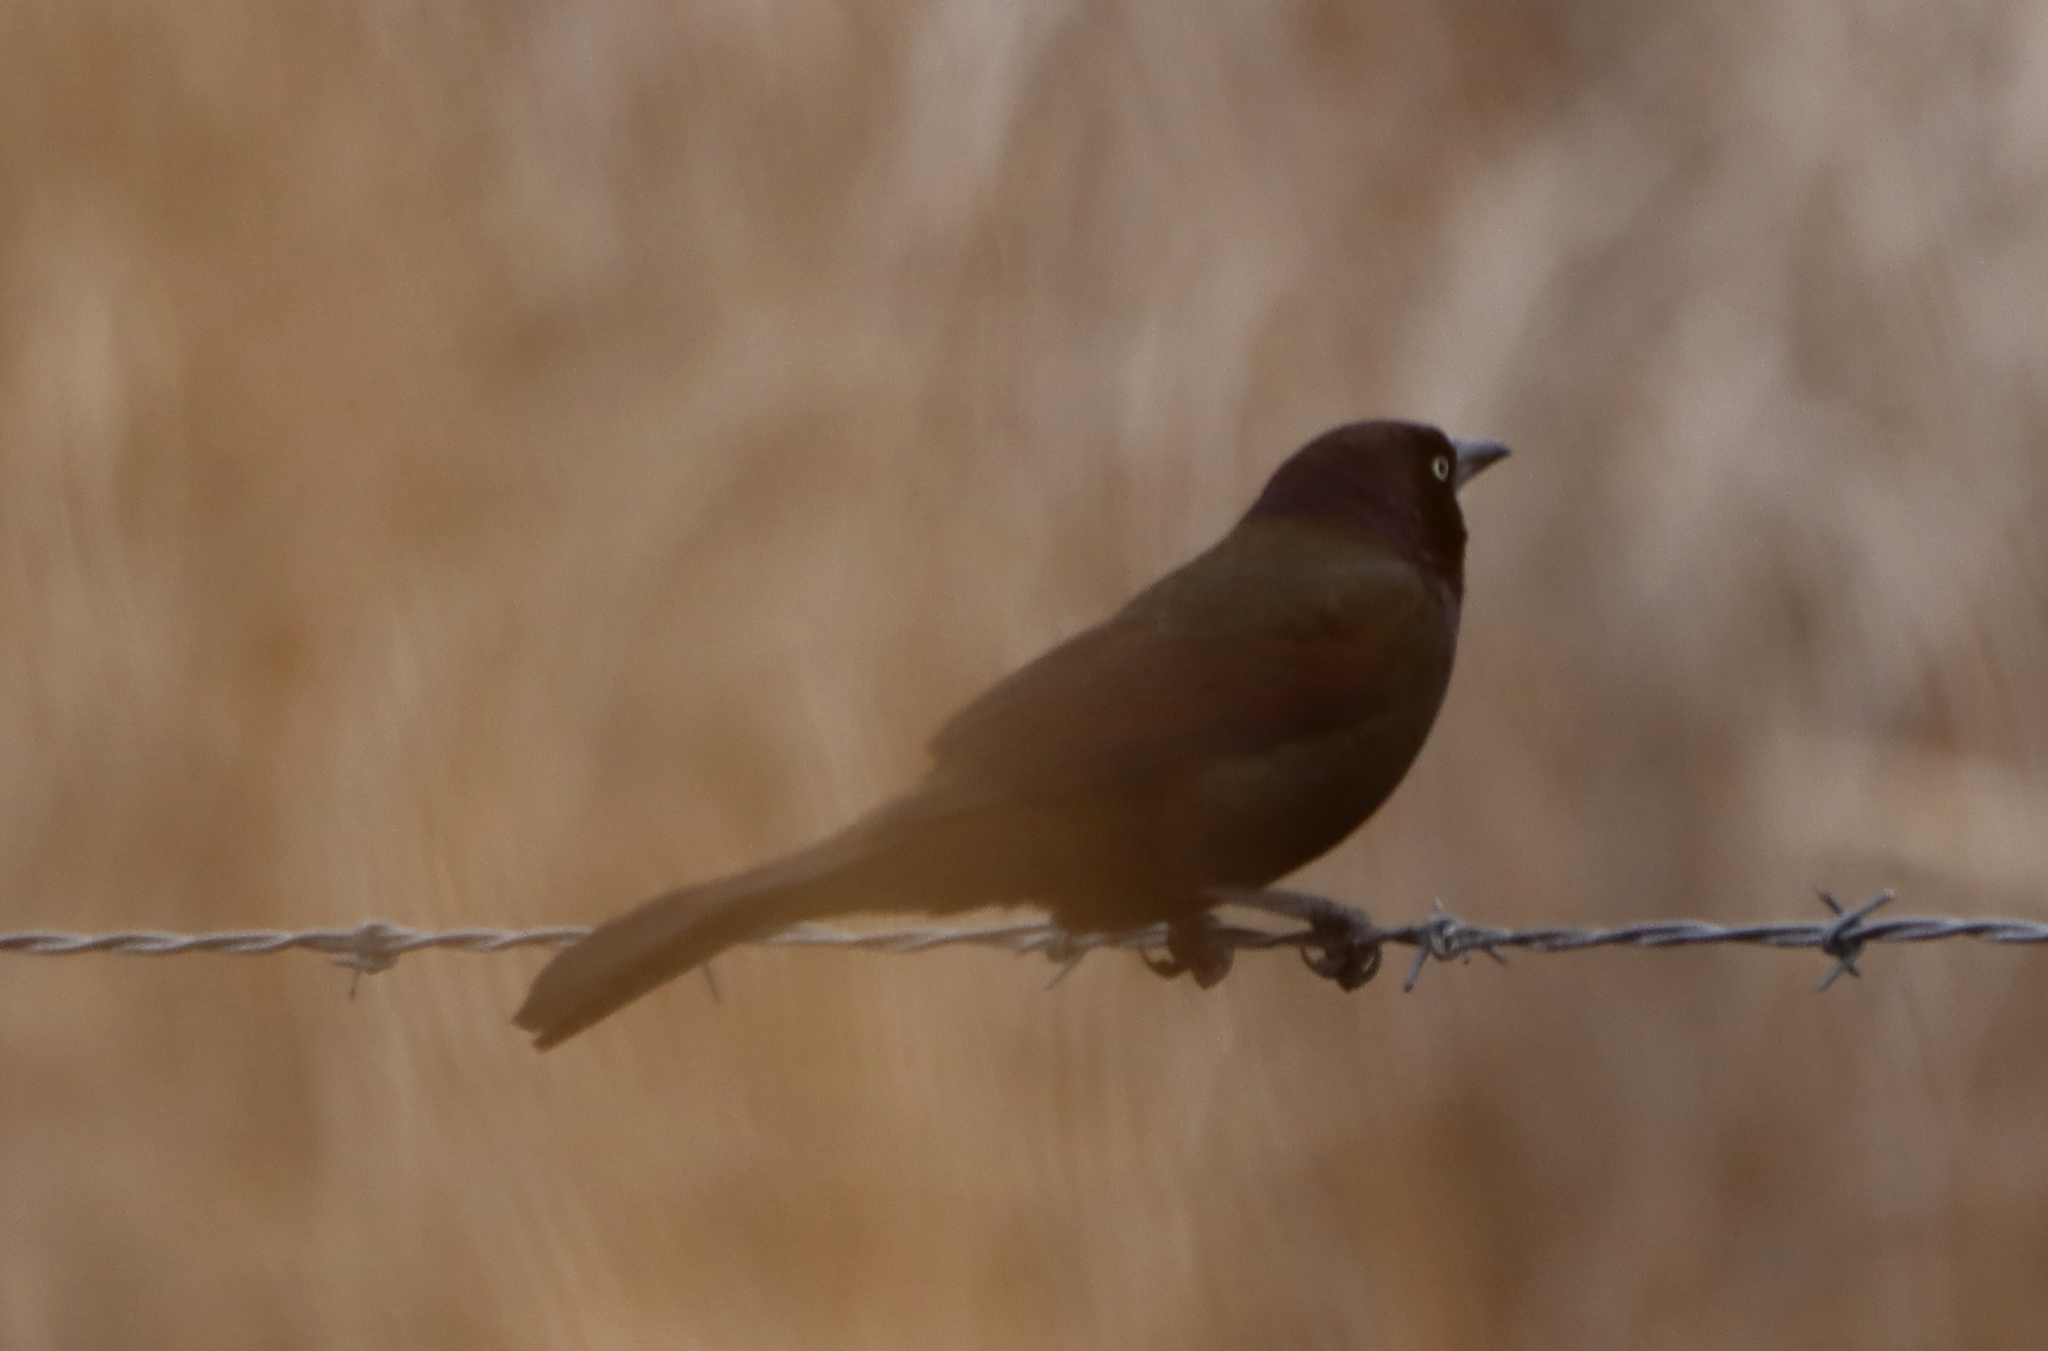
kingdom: Animalia
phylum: Chordata
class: Aves
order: Passeriformes
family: Icteridae
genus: Quiscalus
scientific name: Quiscalus quiscula
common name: Common grackle
